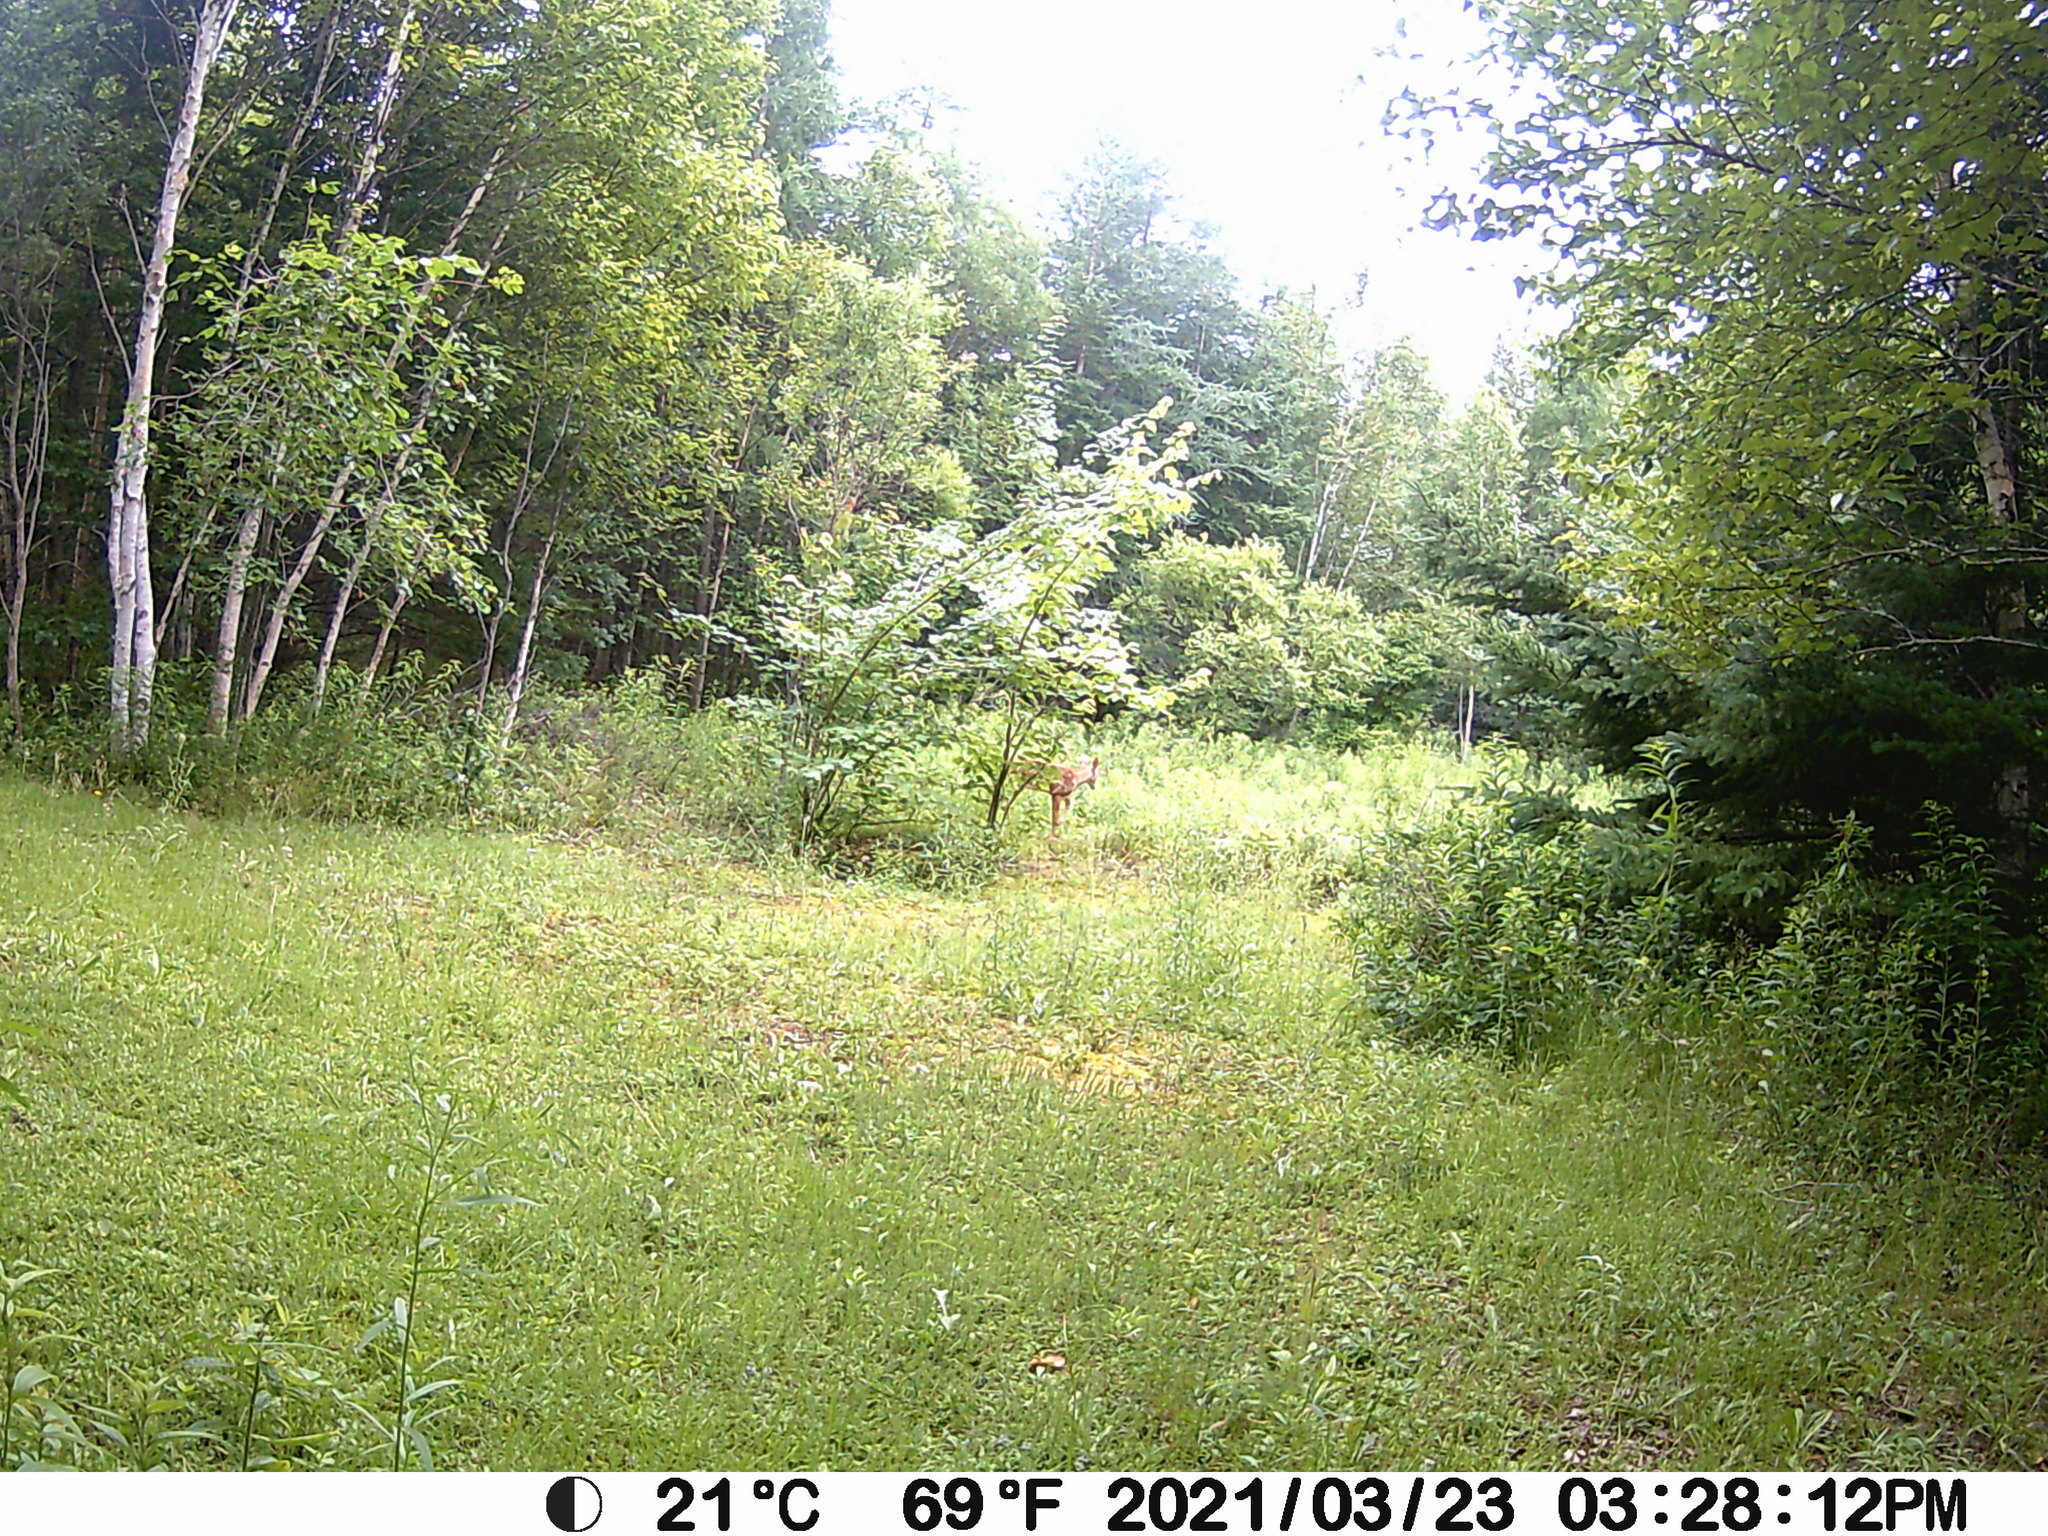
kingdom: Animalia
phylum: Chordata
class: Mammalia
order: Artiodactyla
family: Cervidae
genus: Odocoileus
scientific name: Odocoileus virginianus
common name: White-tailed deer
